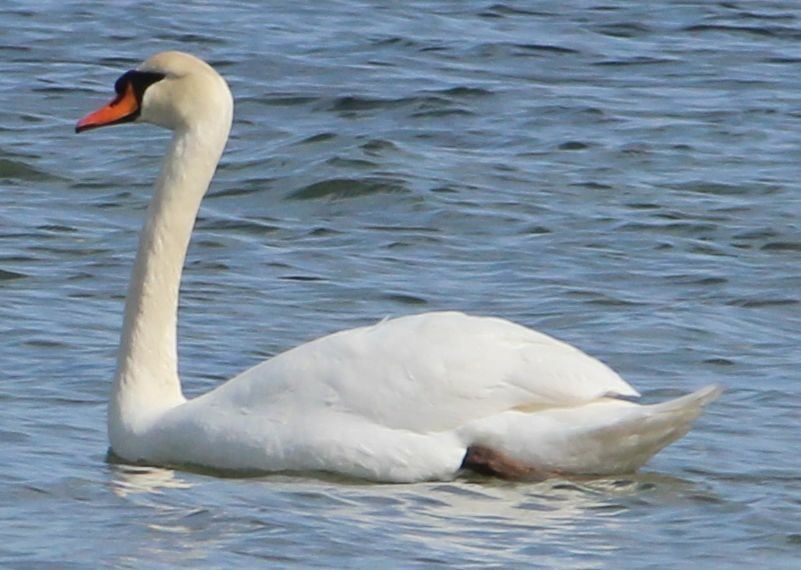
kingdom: Animalia
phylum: Chordata
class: Aves
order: Anseriformes
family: Anatidae
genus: Cygnus
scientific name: Cygnus olor
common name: Mute swan
